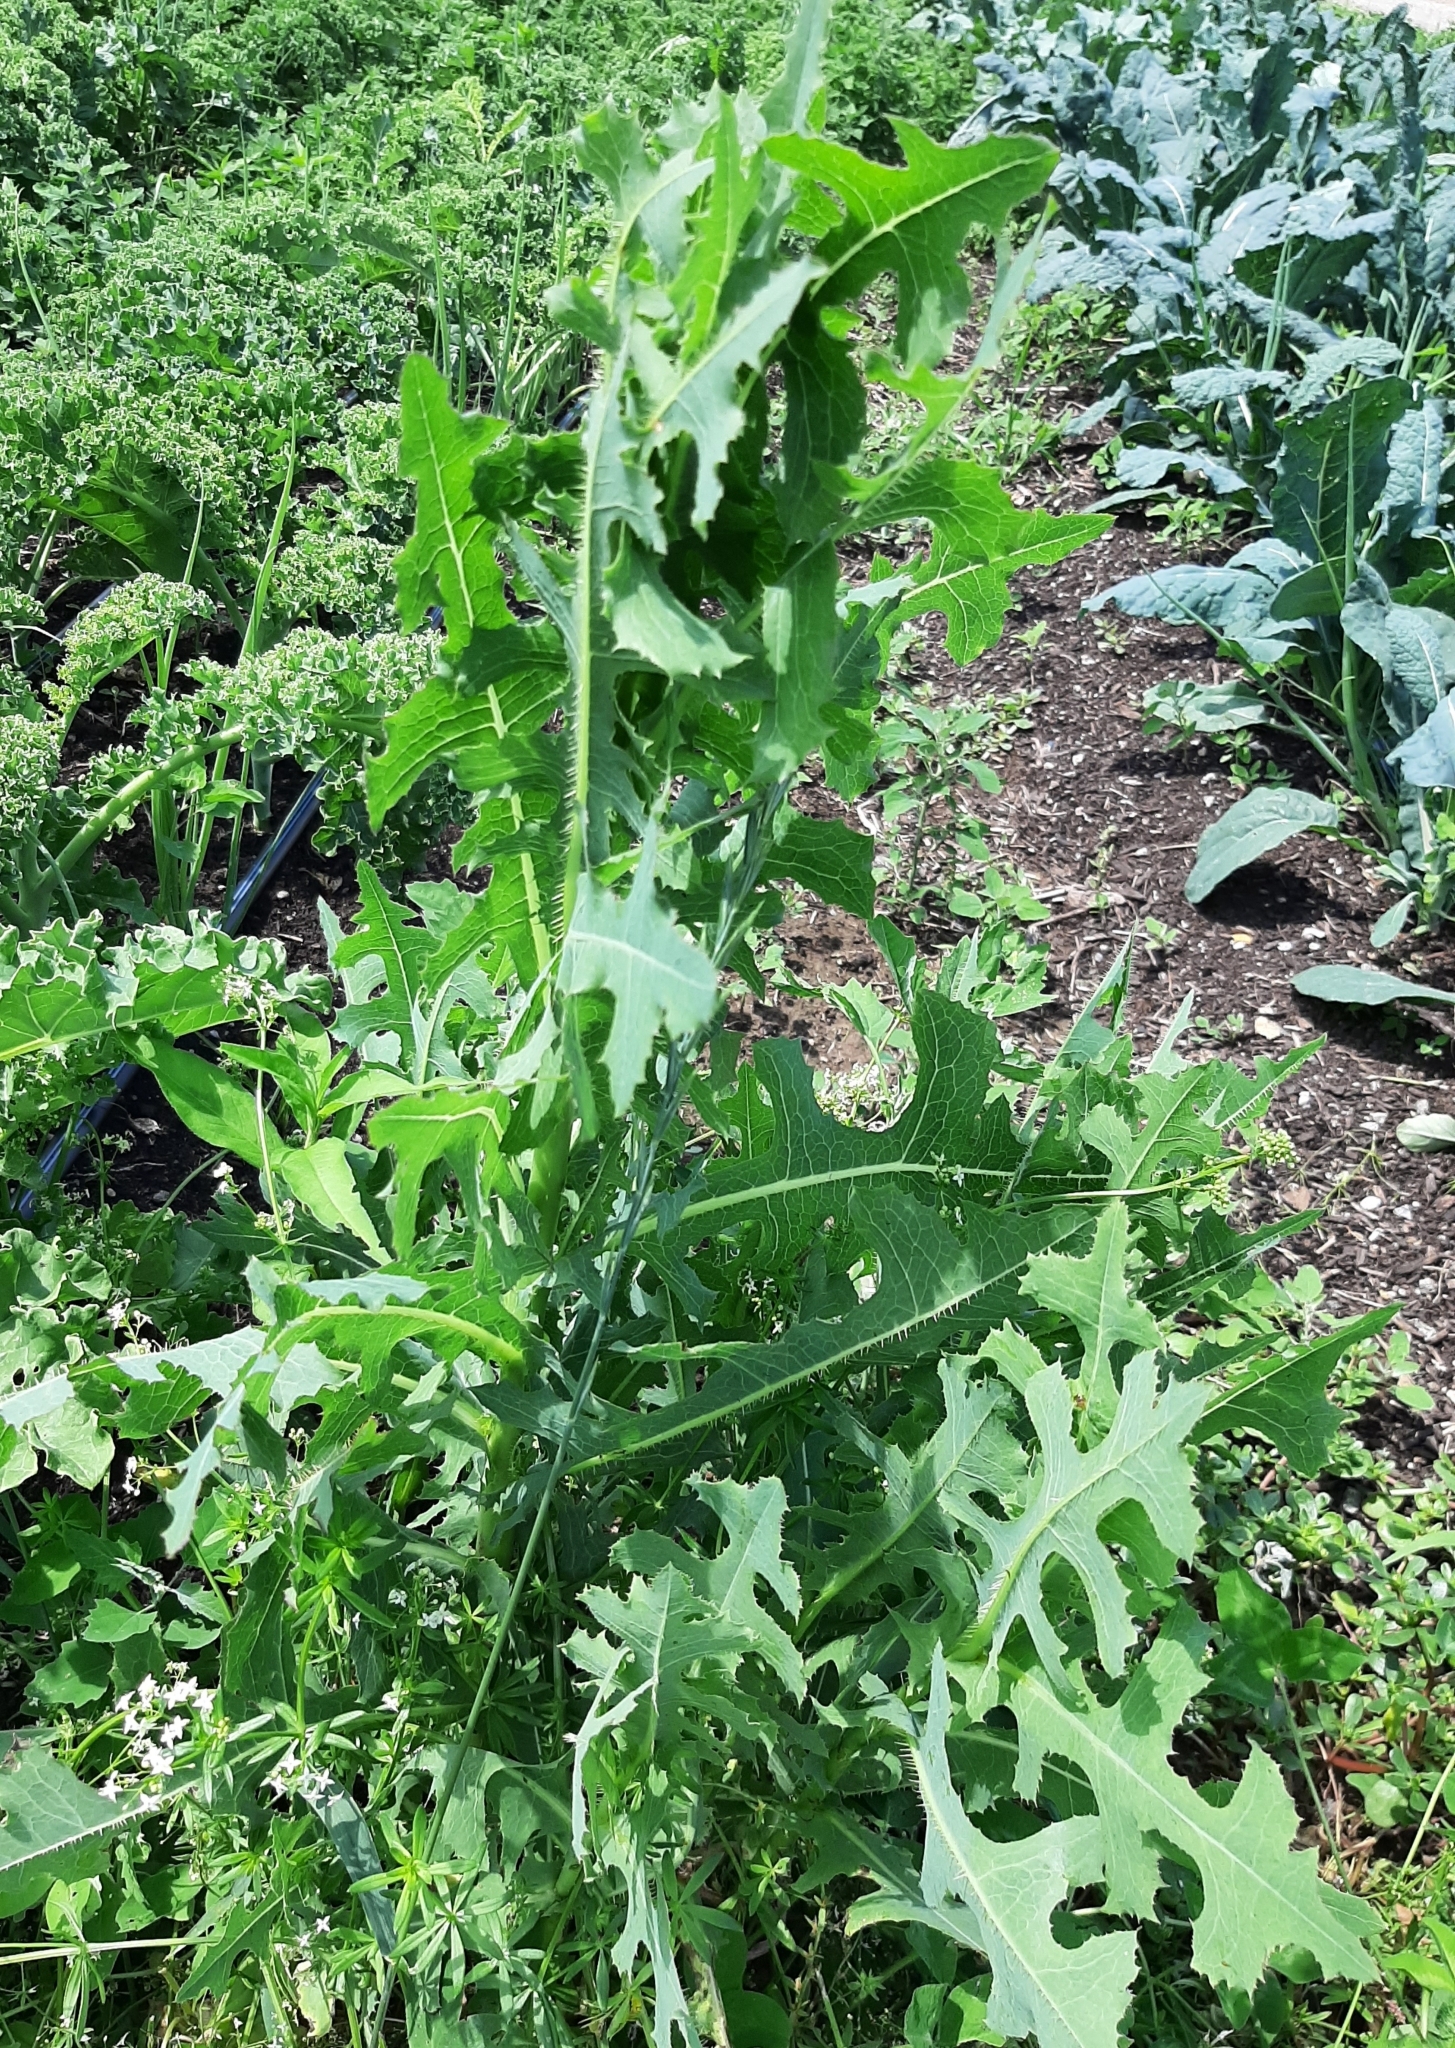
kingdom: Plantae
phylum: Tracheophyta
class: Magnoliopsida
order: Asterales
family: Asteraceae
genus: Lactuca
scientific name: Lactuca serriola
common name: Prickly lettuce
